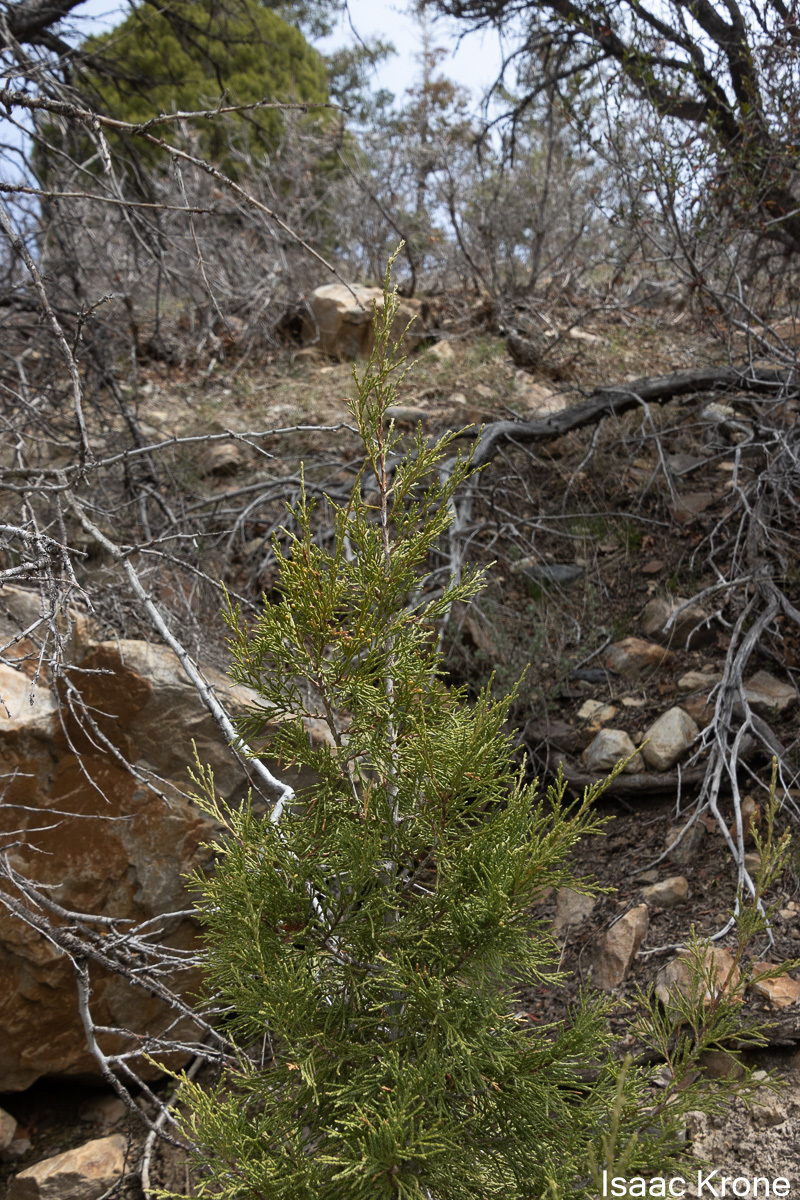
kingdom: Plantae
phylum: Tracheophyta
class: Pinopsida
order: Pinales
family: Cupressaceae
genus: Juniperus
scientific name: Juniperus scopulorum
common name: Rocky mountain juniper
